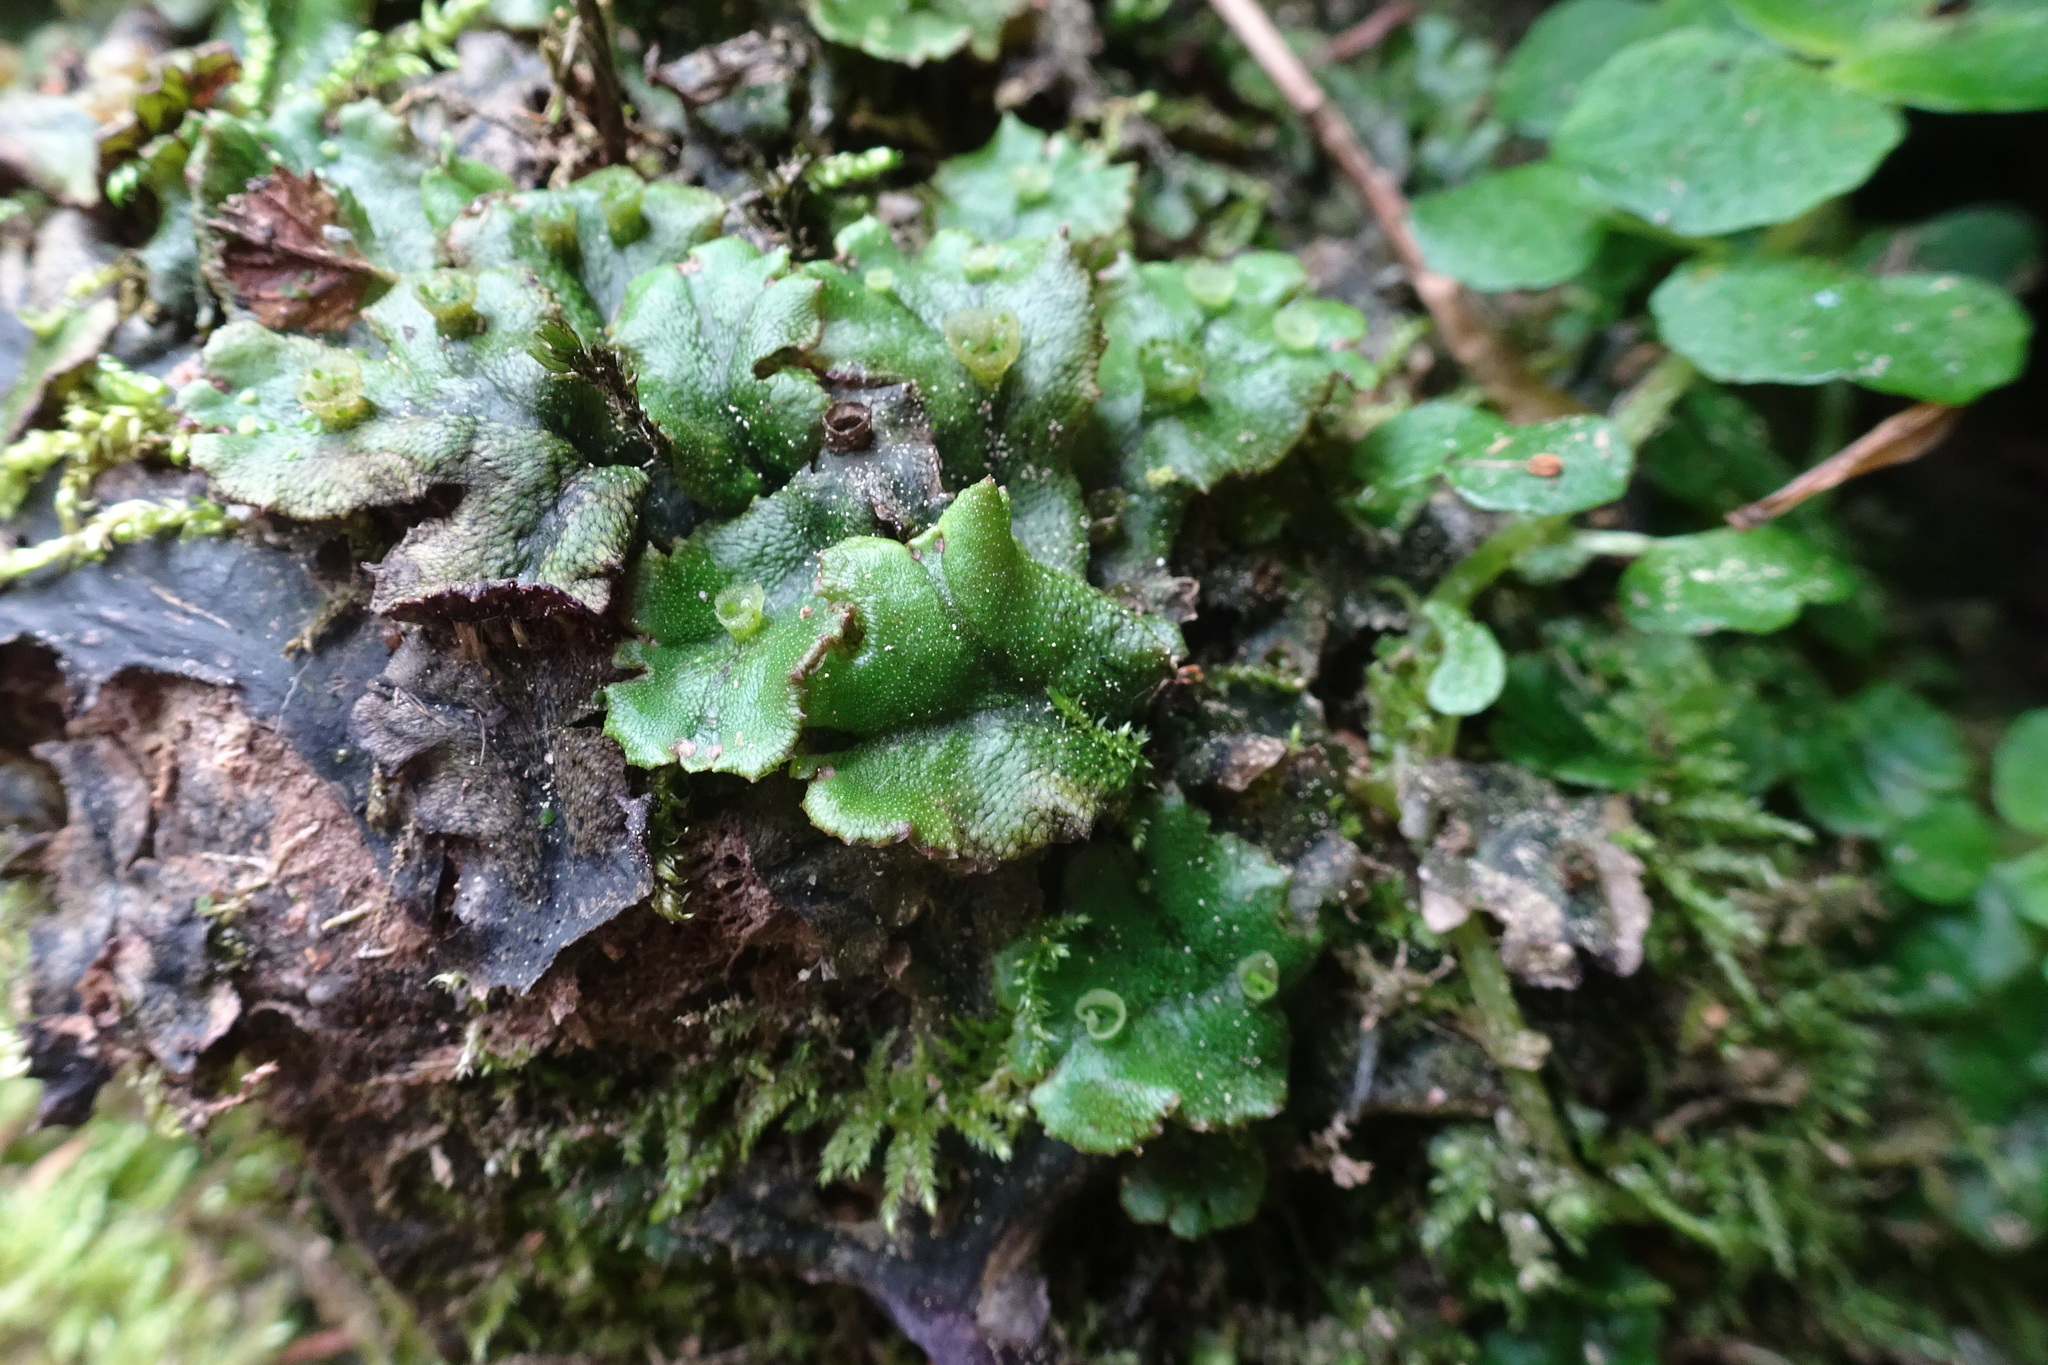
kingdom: Plantae
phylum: Marchantiophyta
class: Marchantiopsida
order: Marchantiales
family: Marchantiaceae
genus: Marchantia
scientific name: Marchantia polymorpha
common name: Common liverwort
